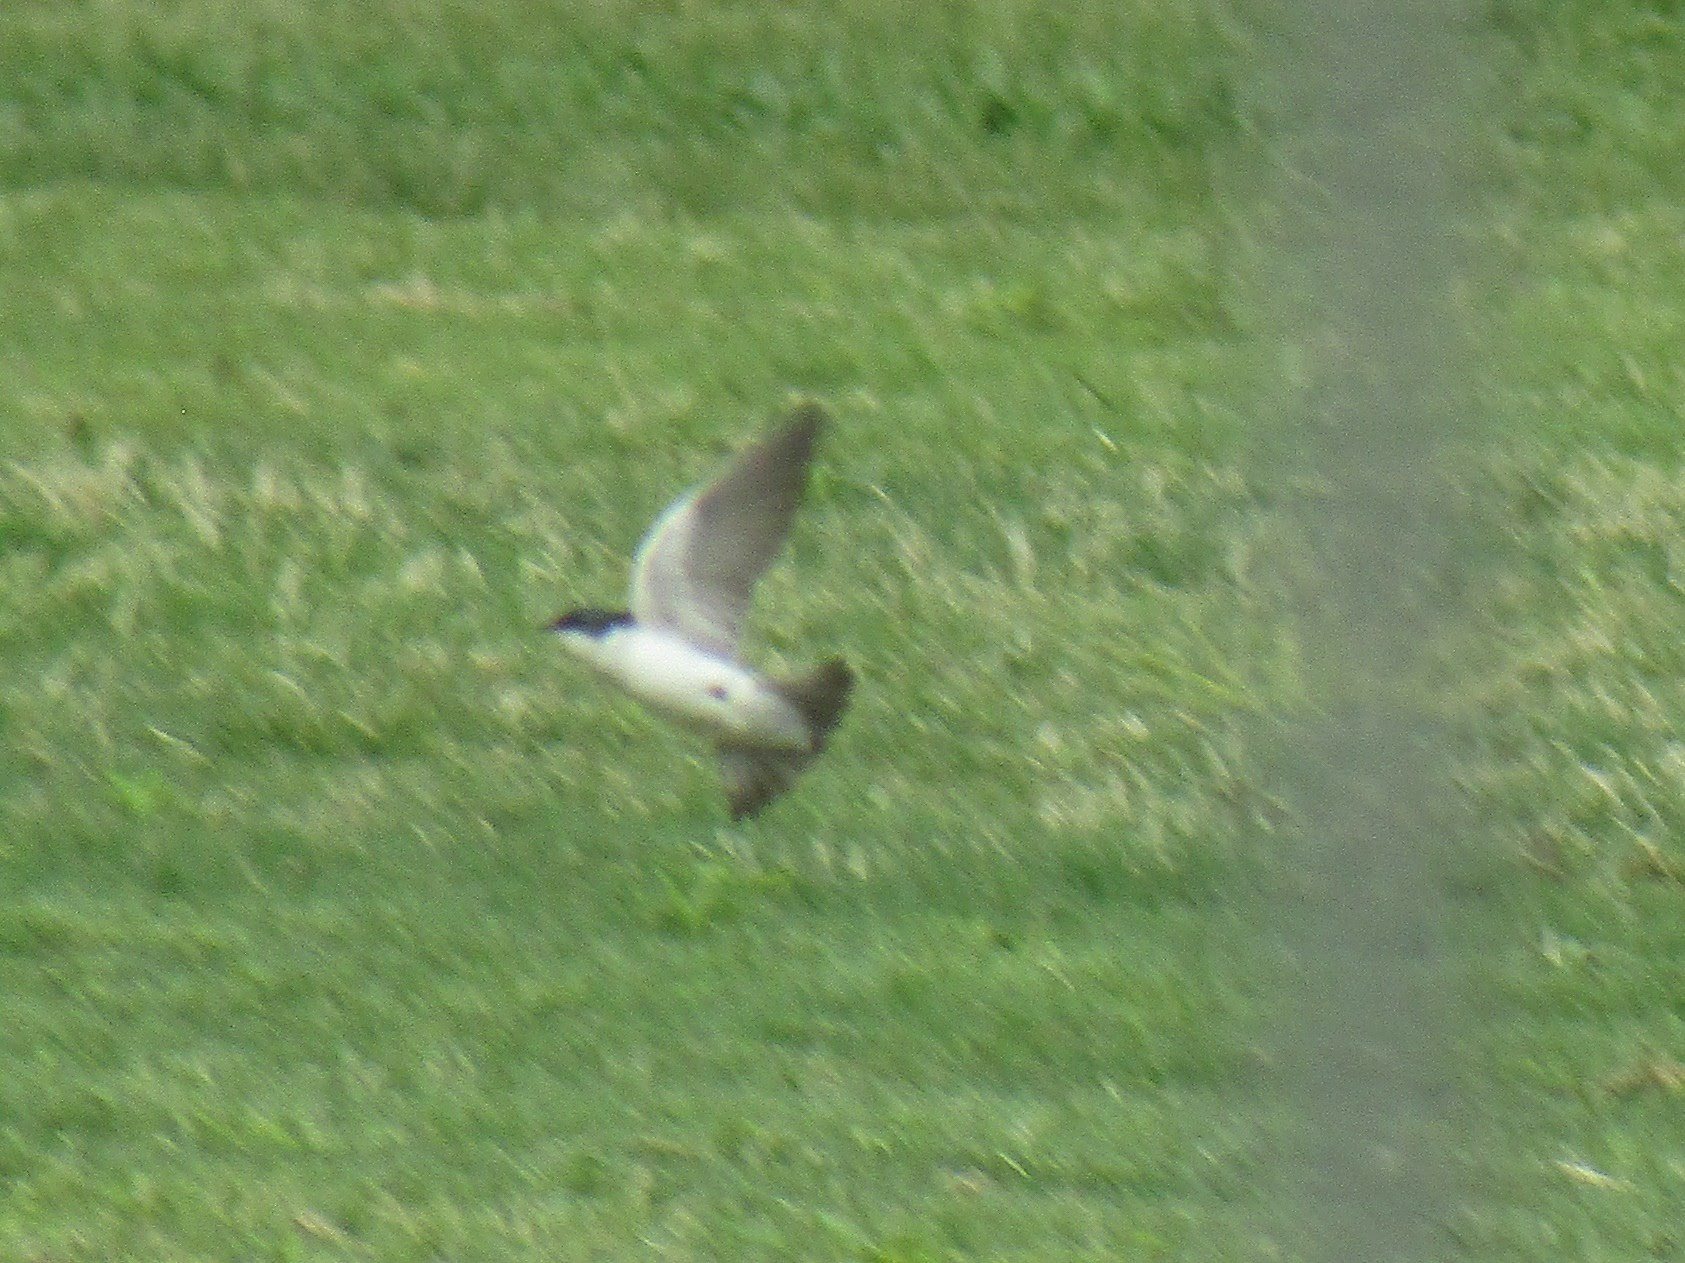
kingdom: Animalia
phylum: Chordata
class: Aves
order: Passeriformes
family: Hirundinidae
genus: Tachycineta
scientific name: Tachycineta leucorrhoa
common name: White-rumped swallow
